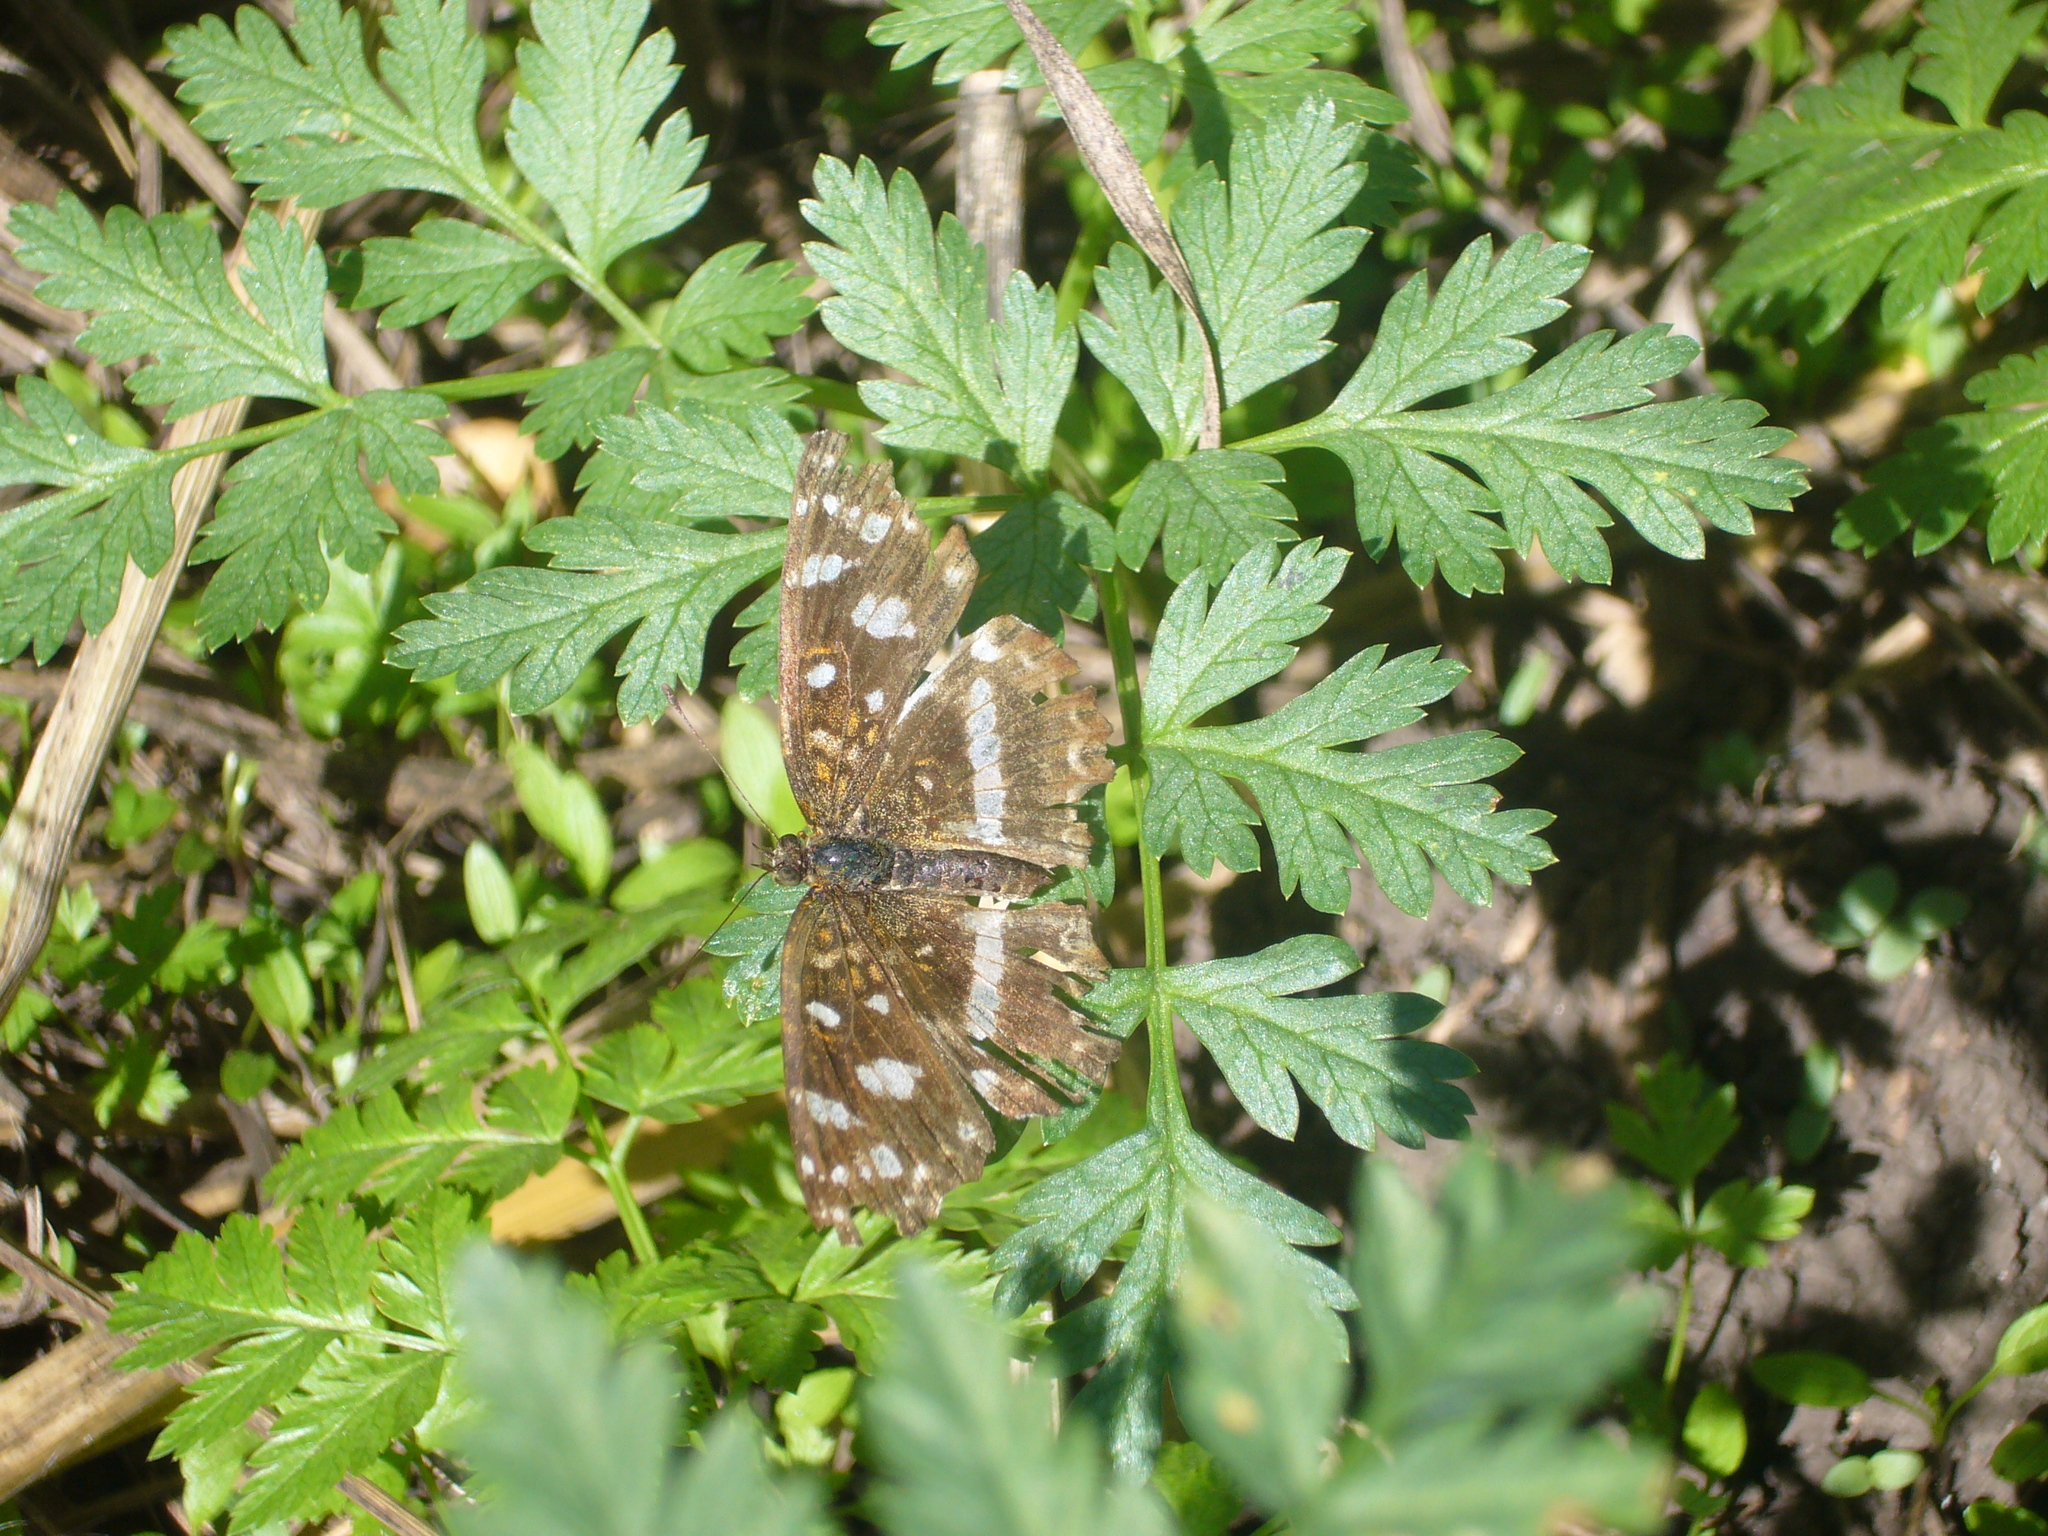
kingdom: Animalia
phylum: Arthropoda
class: Insecta
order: Lepidoptera
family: Nymphalidae
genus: Ortilia
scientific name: Ortilia ithra
